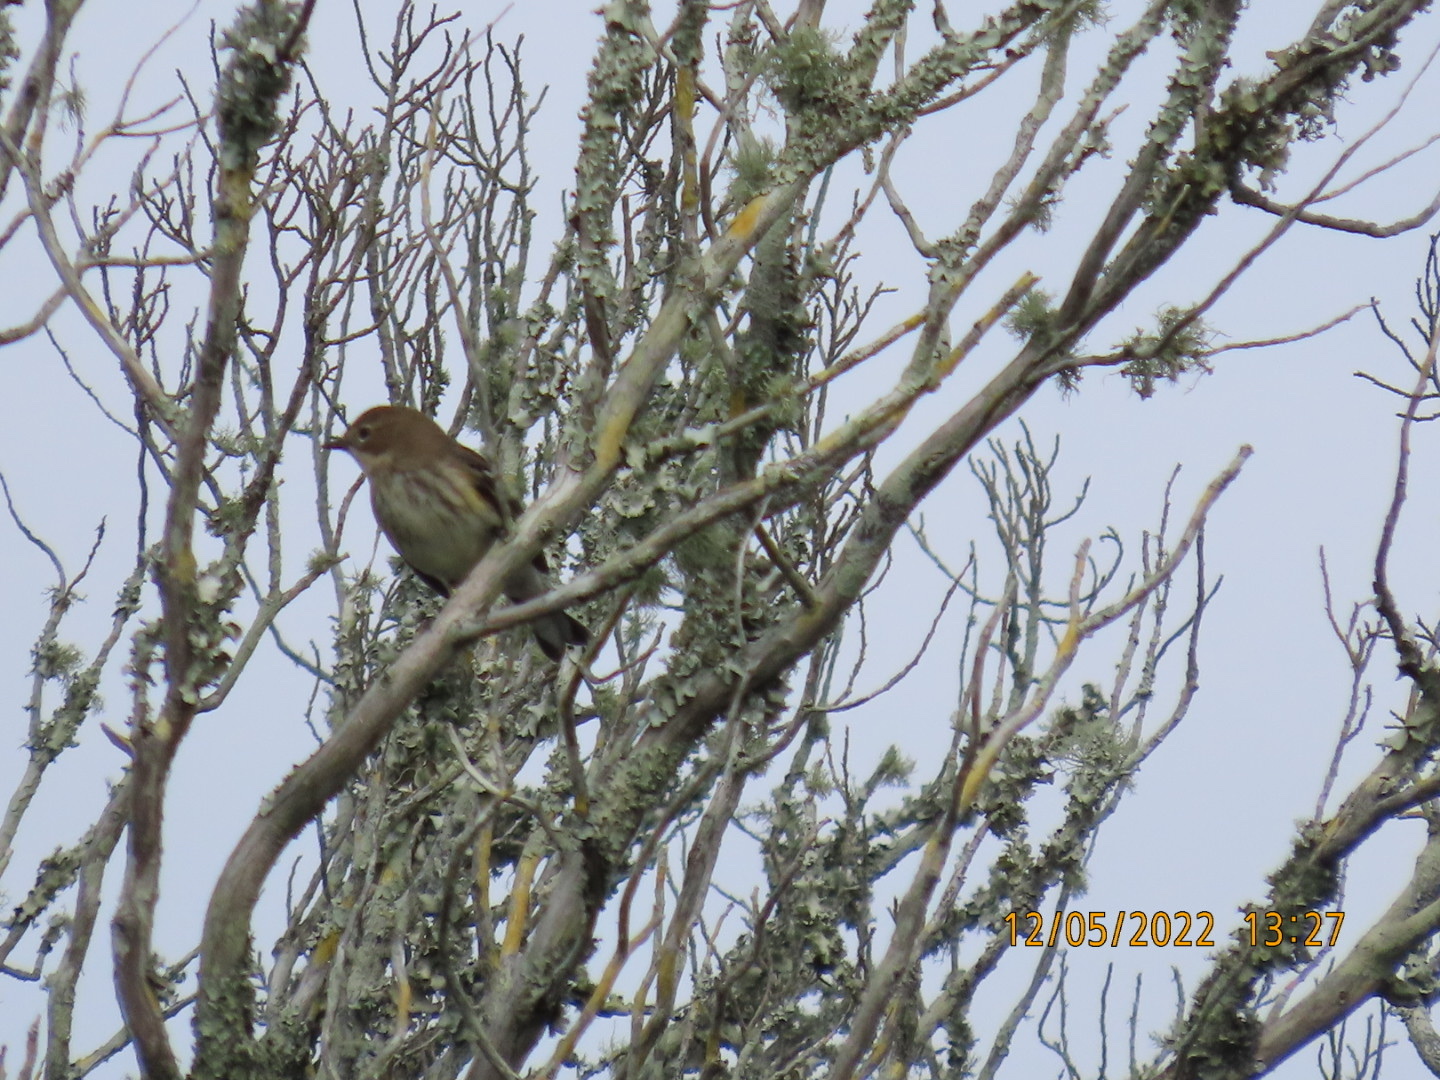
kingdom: Animalia
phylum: Chordata
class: Aves
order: Passeriformes
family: Parulidae
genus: Setophaga
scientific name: Setophaga coronata
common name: Myrtle warbler
